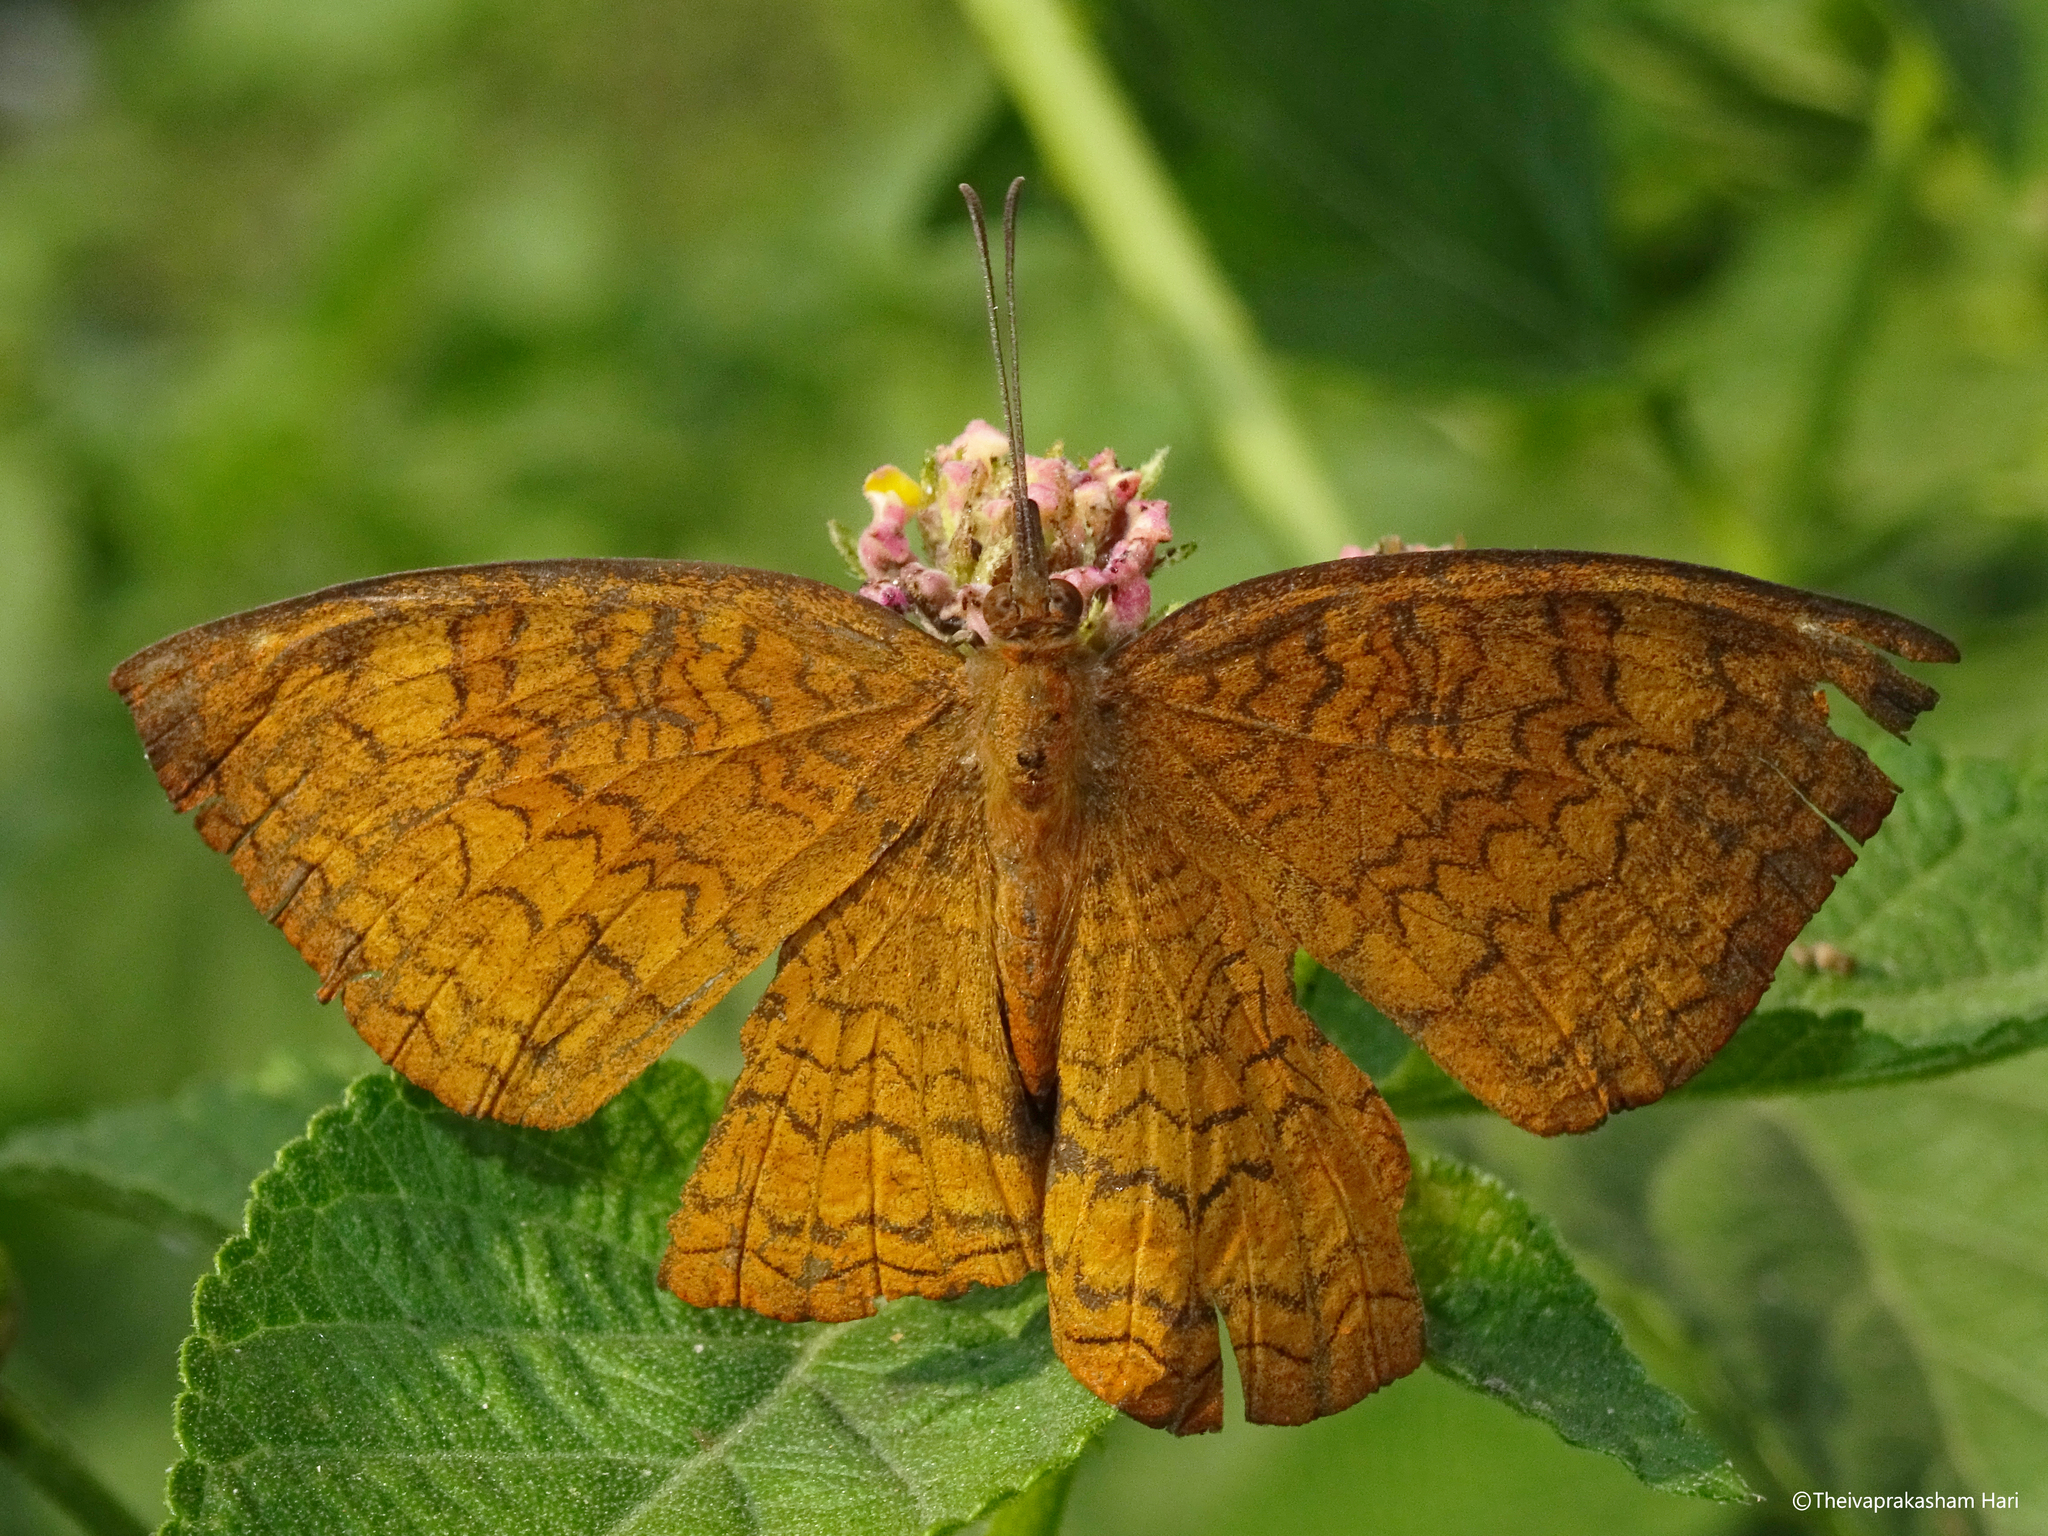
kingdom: Animalia
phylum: Arthropoda
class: Insecta
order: Lepidoptera
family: Nymphalidae
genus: Ariadne
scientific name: Ariadne merione
